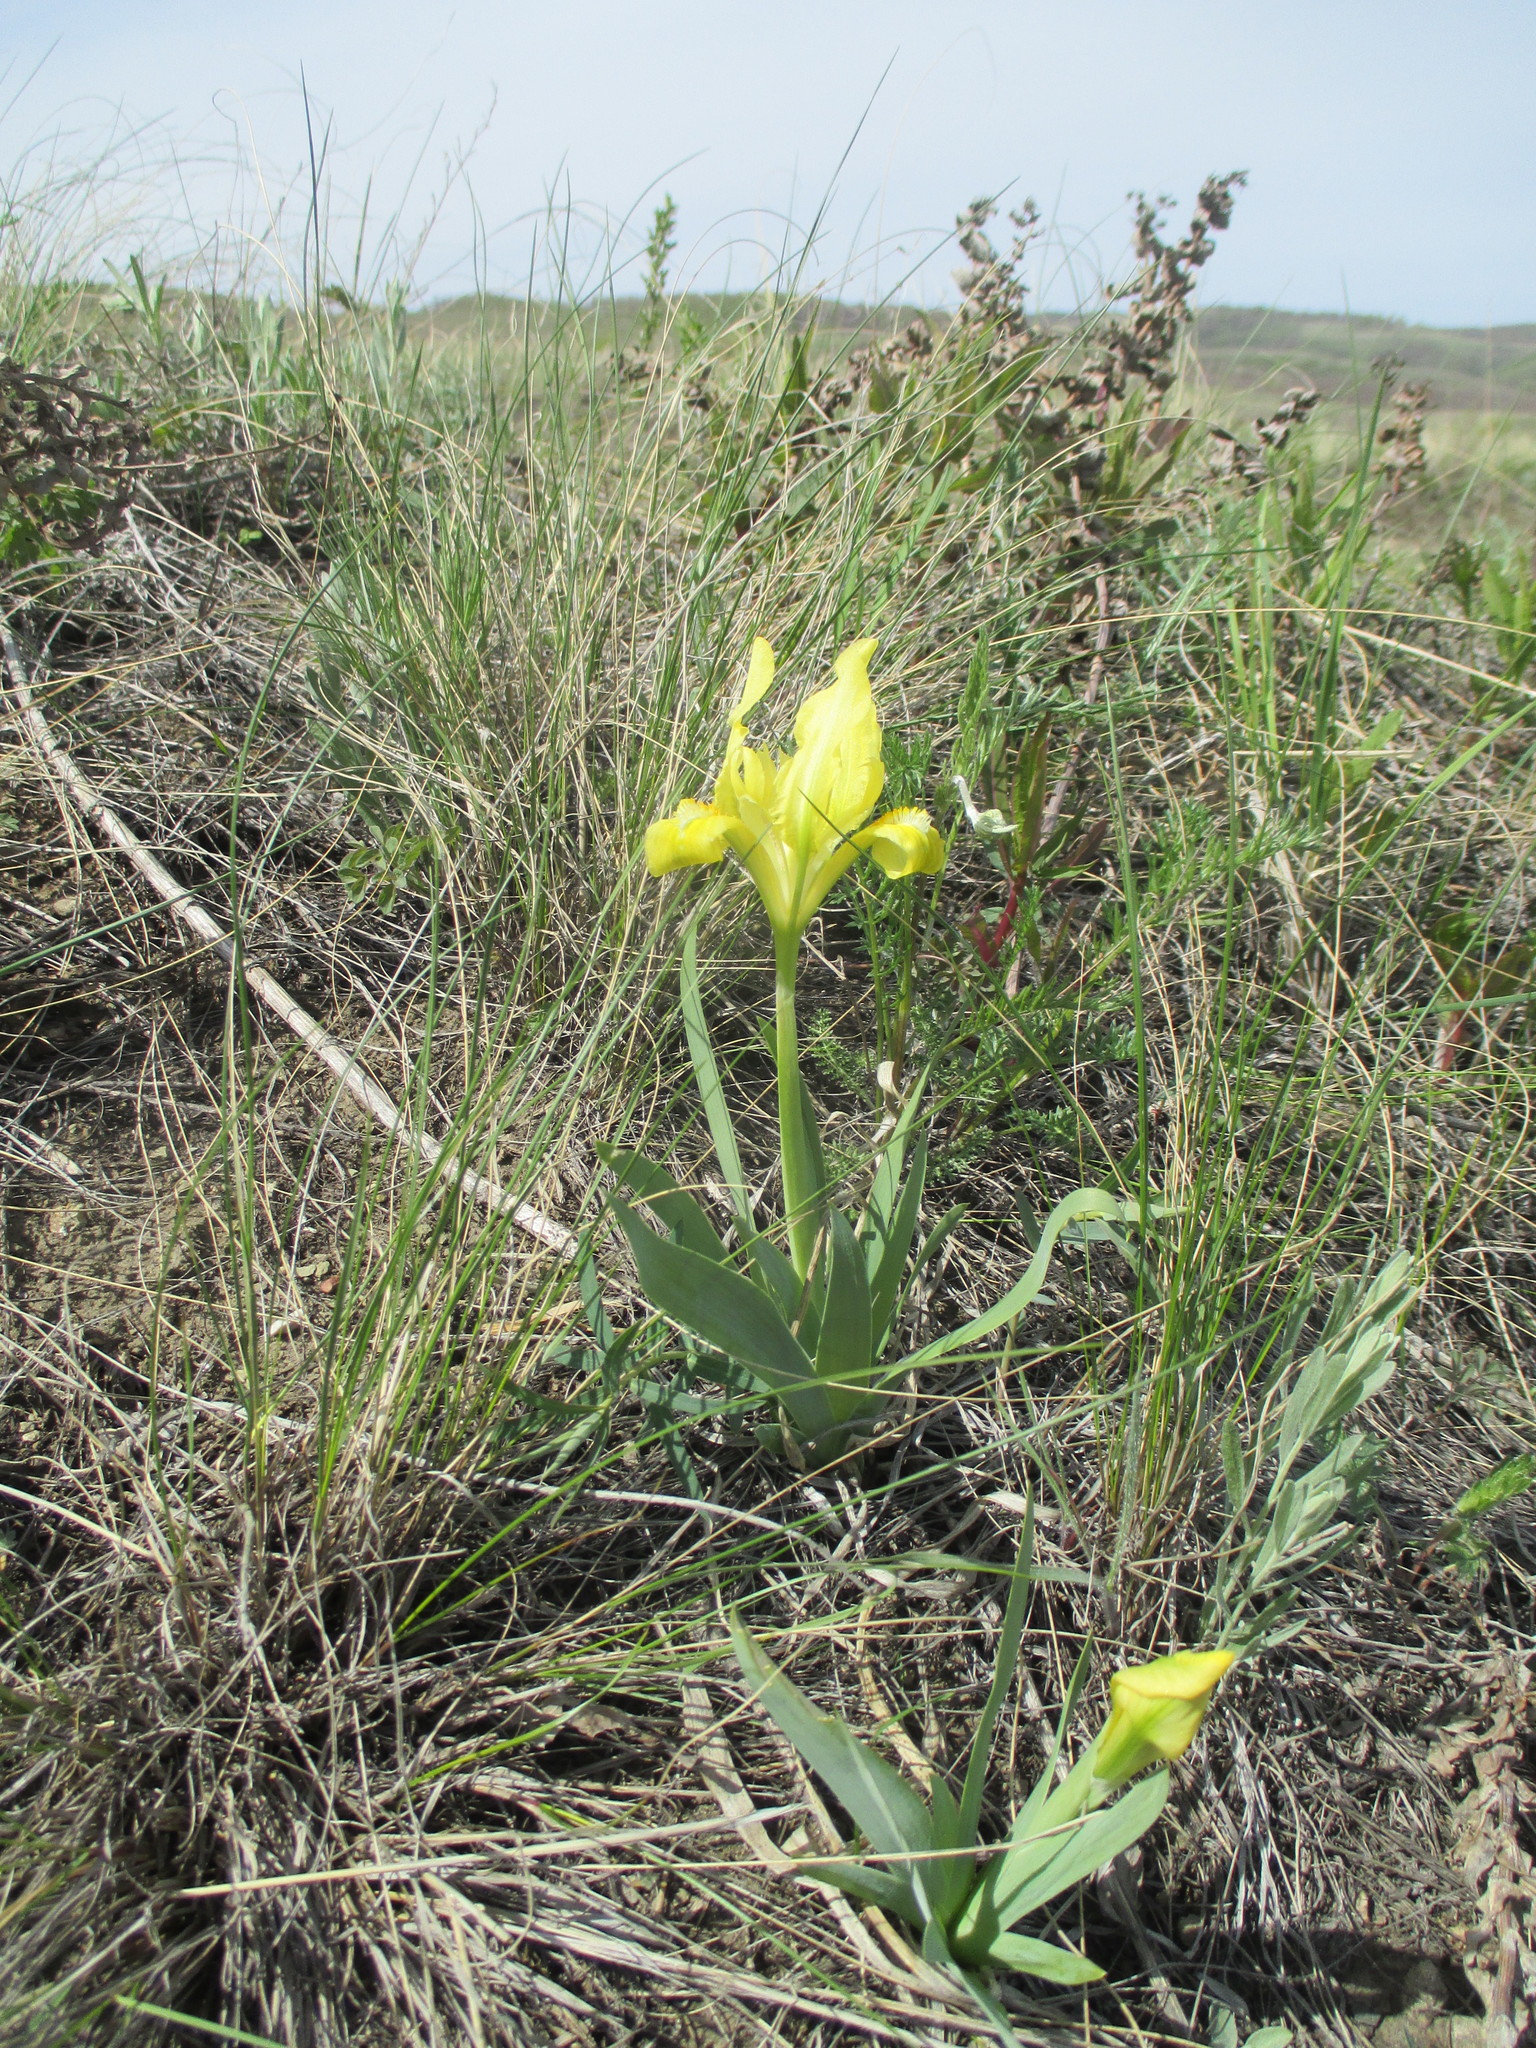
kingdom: Plantae
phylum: Tracheophyta
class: Liliopsida
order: Asparagales
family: Iridaceae
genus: Iris
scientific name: Iris pumila
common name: Dwarf iris
